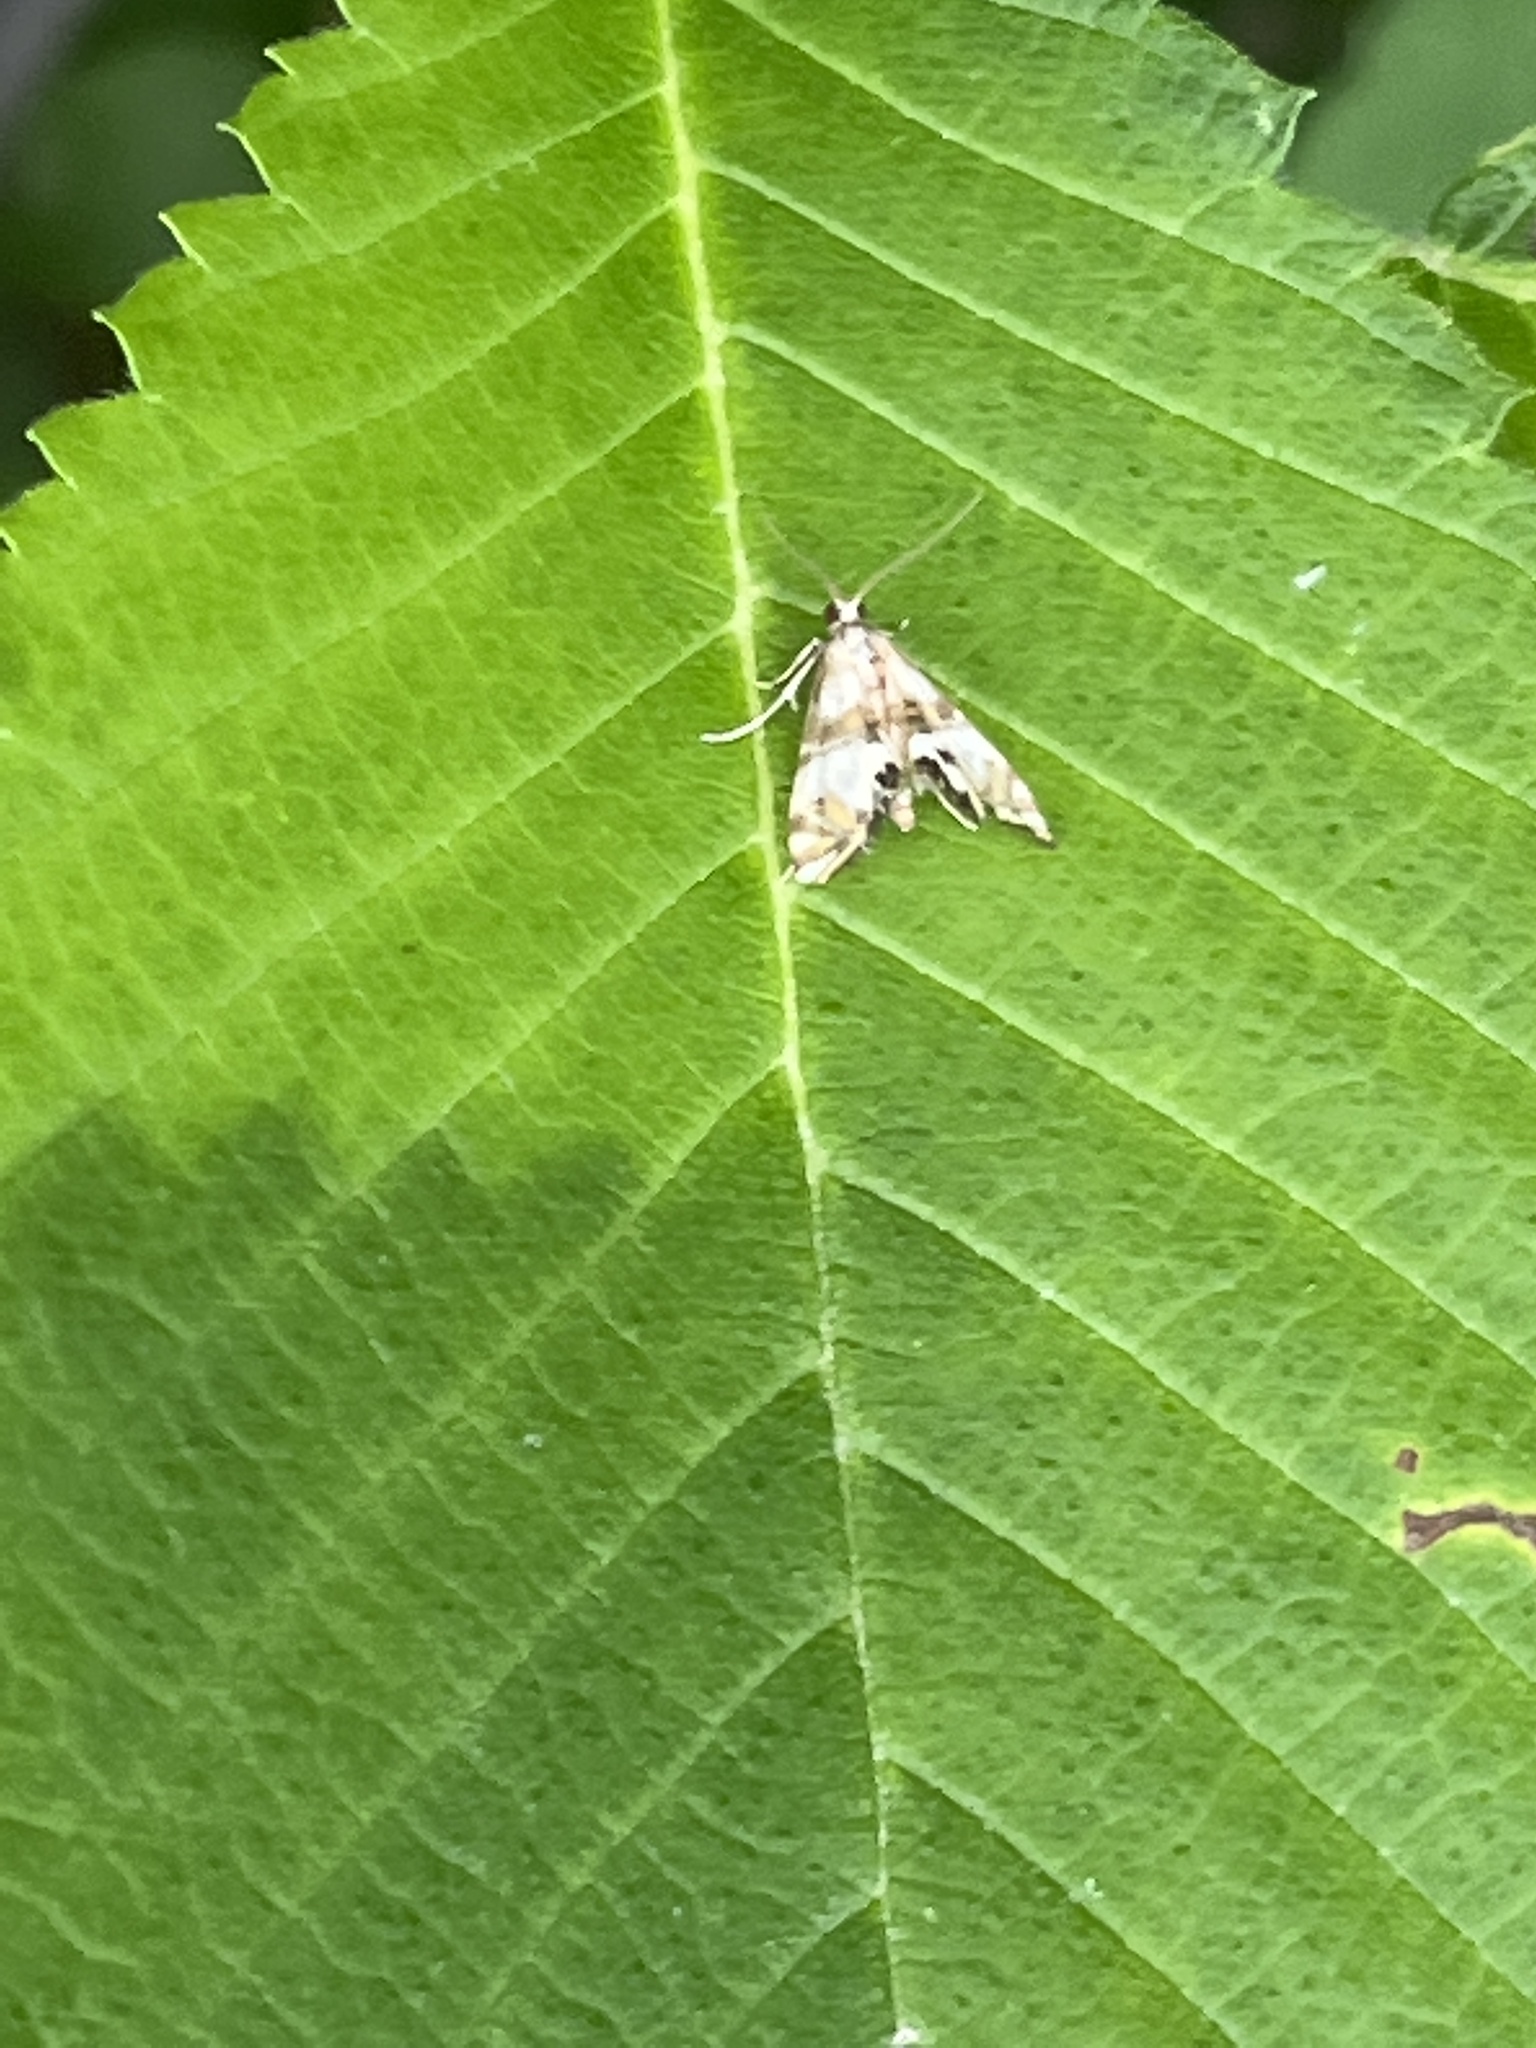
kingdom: Animalia
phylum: Arthropoda
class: Insecta
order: Lepidoptera
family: Crambidae
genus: Petrophila
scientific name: Petrophila bifascialis
